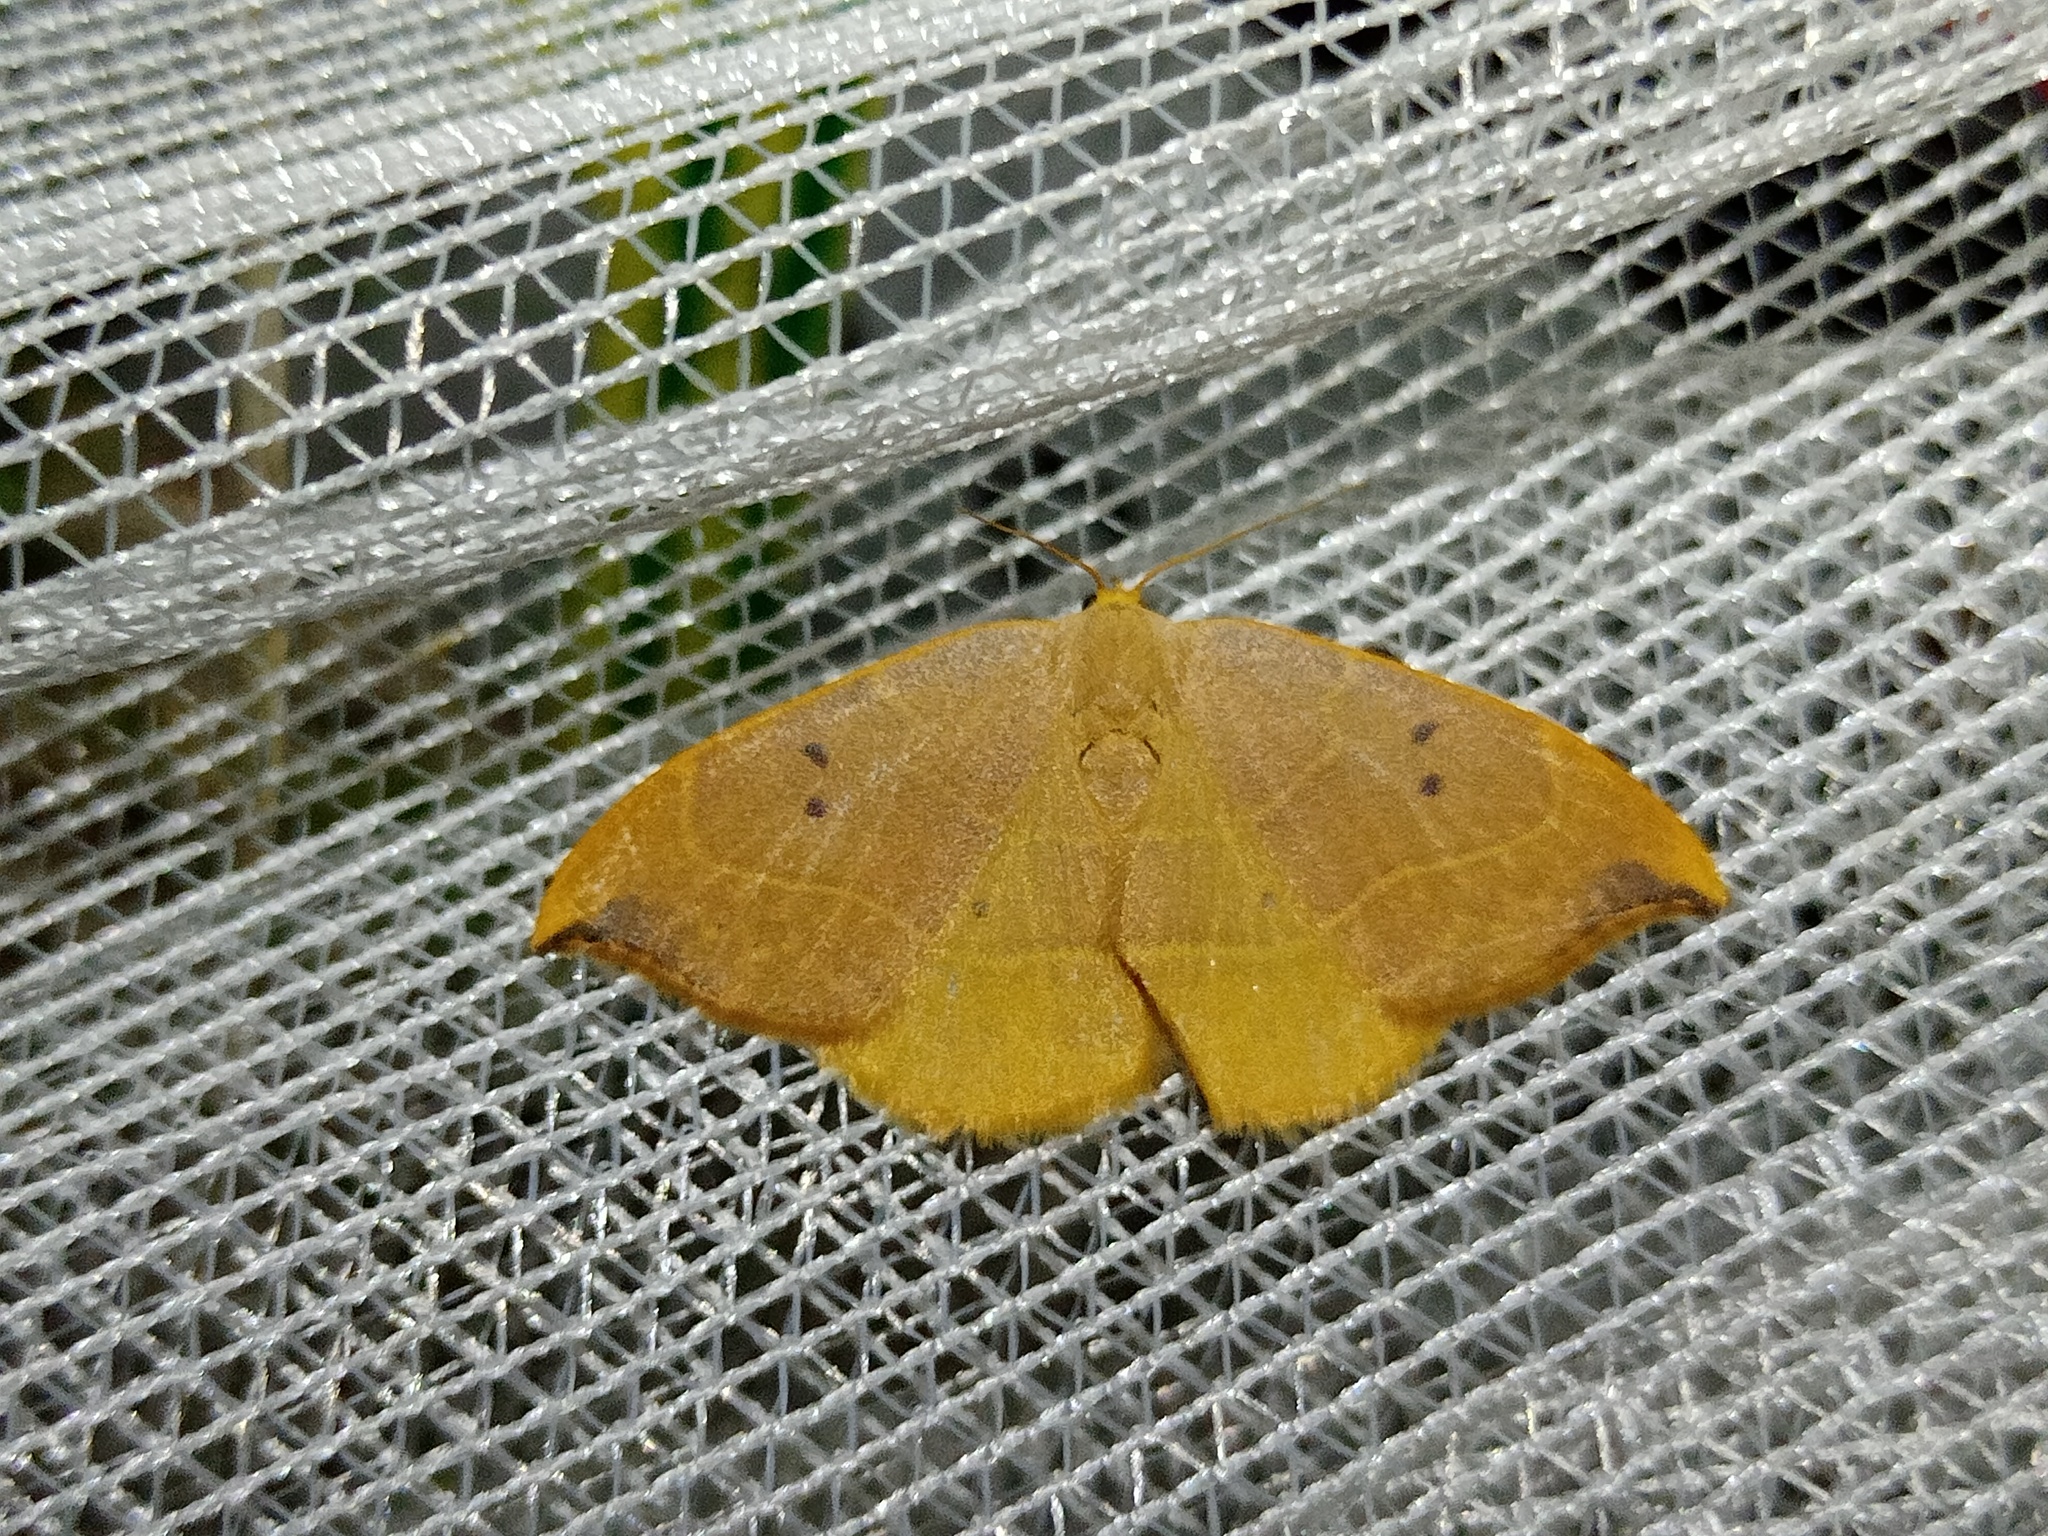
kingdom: Animalia
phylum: Arthropoda
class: Insecta
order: Lepidoptera
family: Drepanidae
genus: Watsonalla
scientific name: Watsonalla binaria
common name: Oak hook-tip
